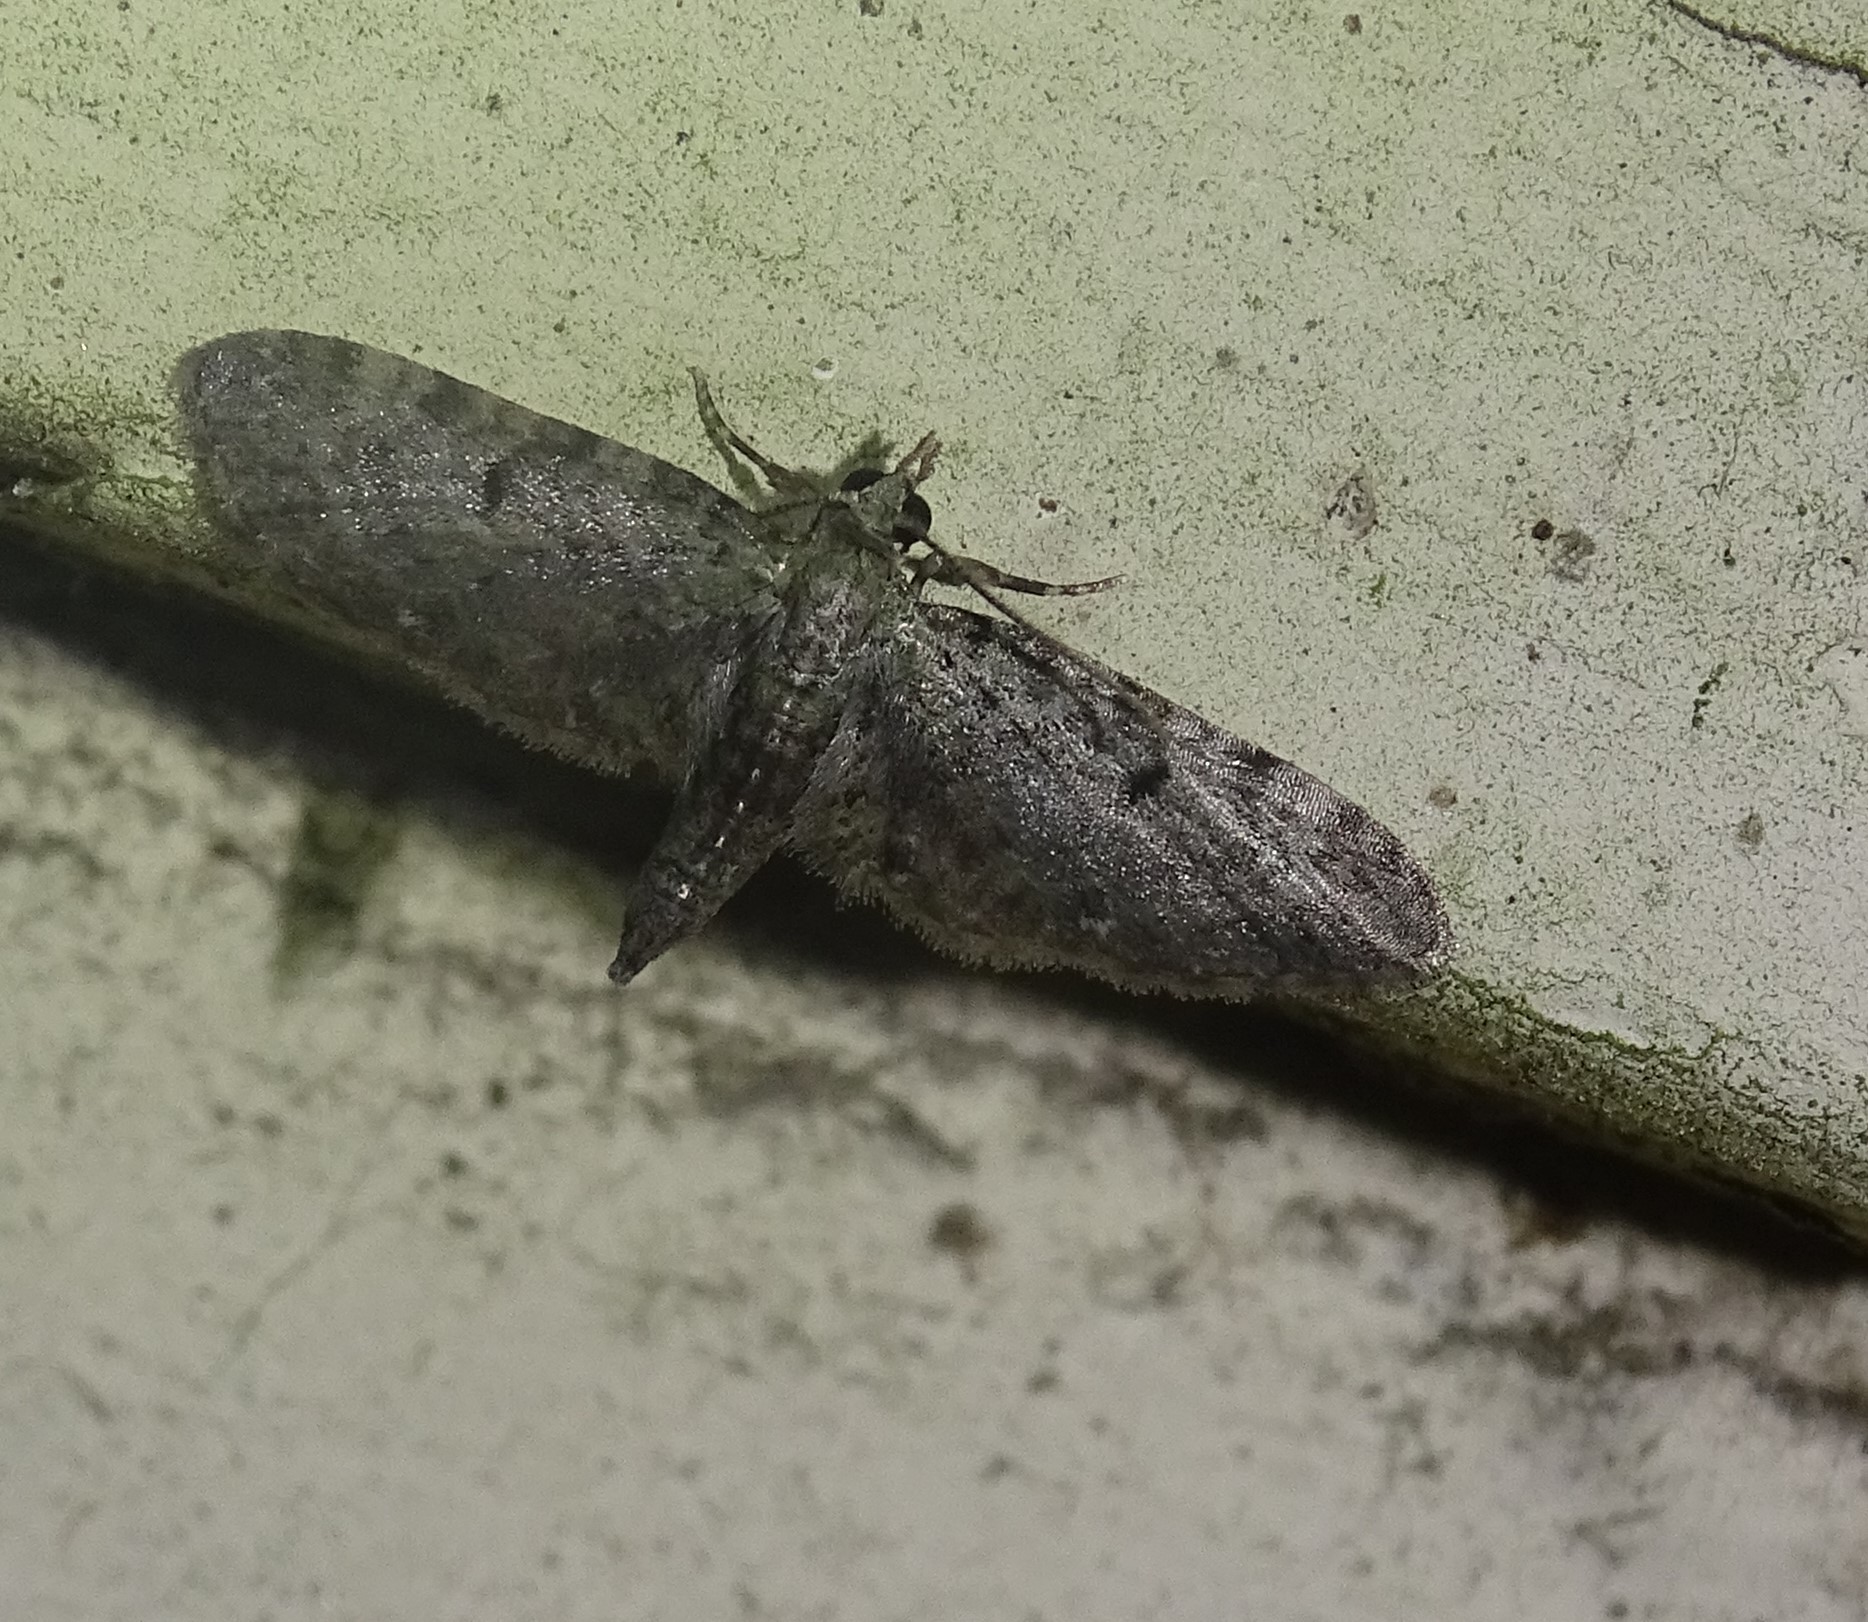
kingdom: Animalia
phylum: Arthropoda
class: Insecta
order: Lepidoptera
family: Geometridae
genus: Eupithecia
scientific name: Eupithecia miserulata
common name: Common eupithecia
